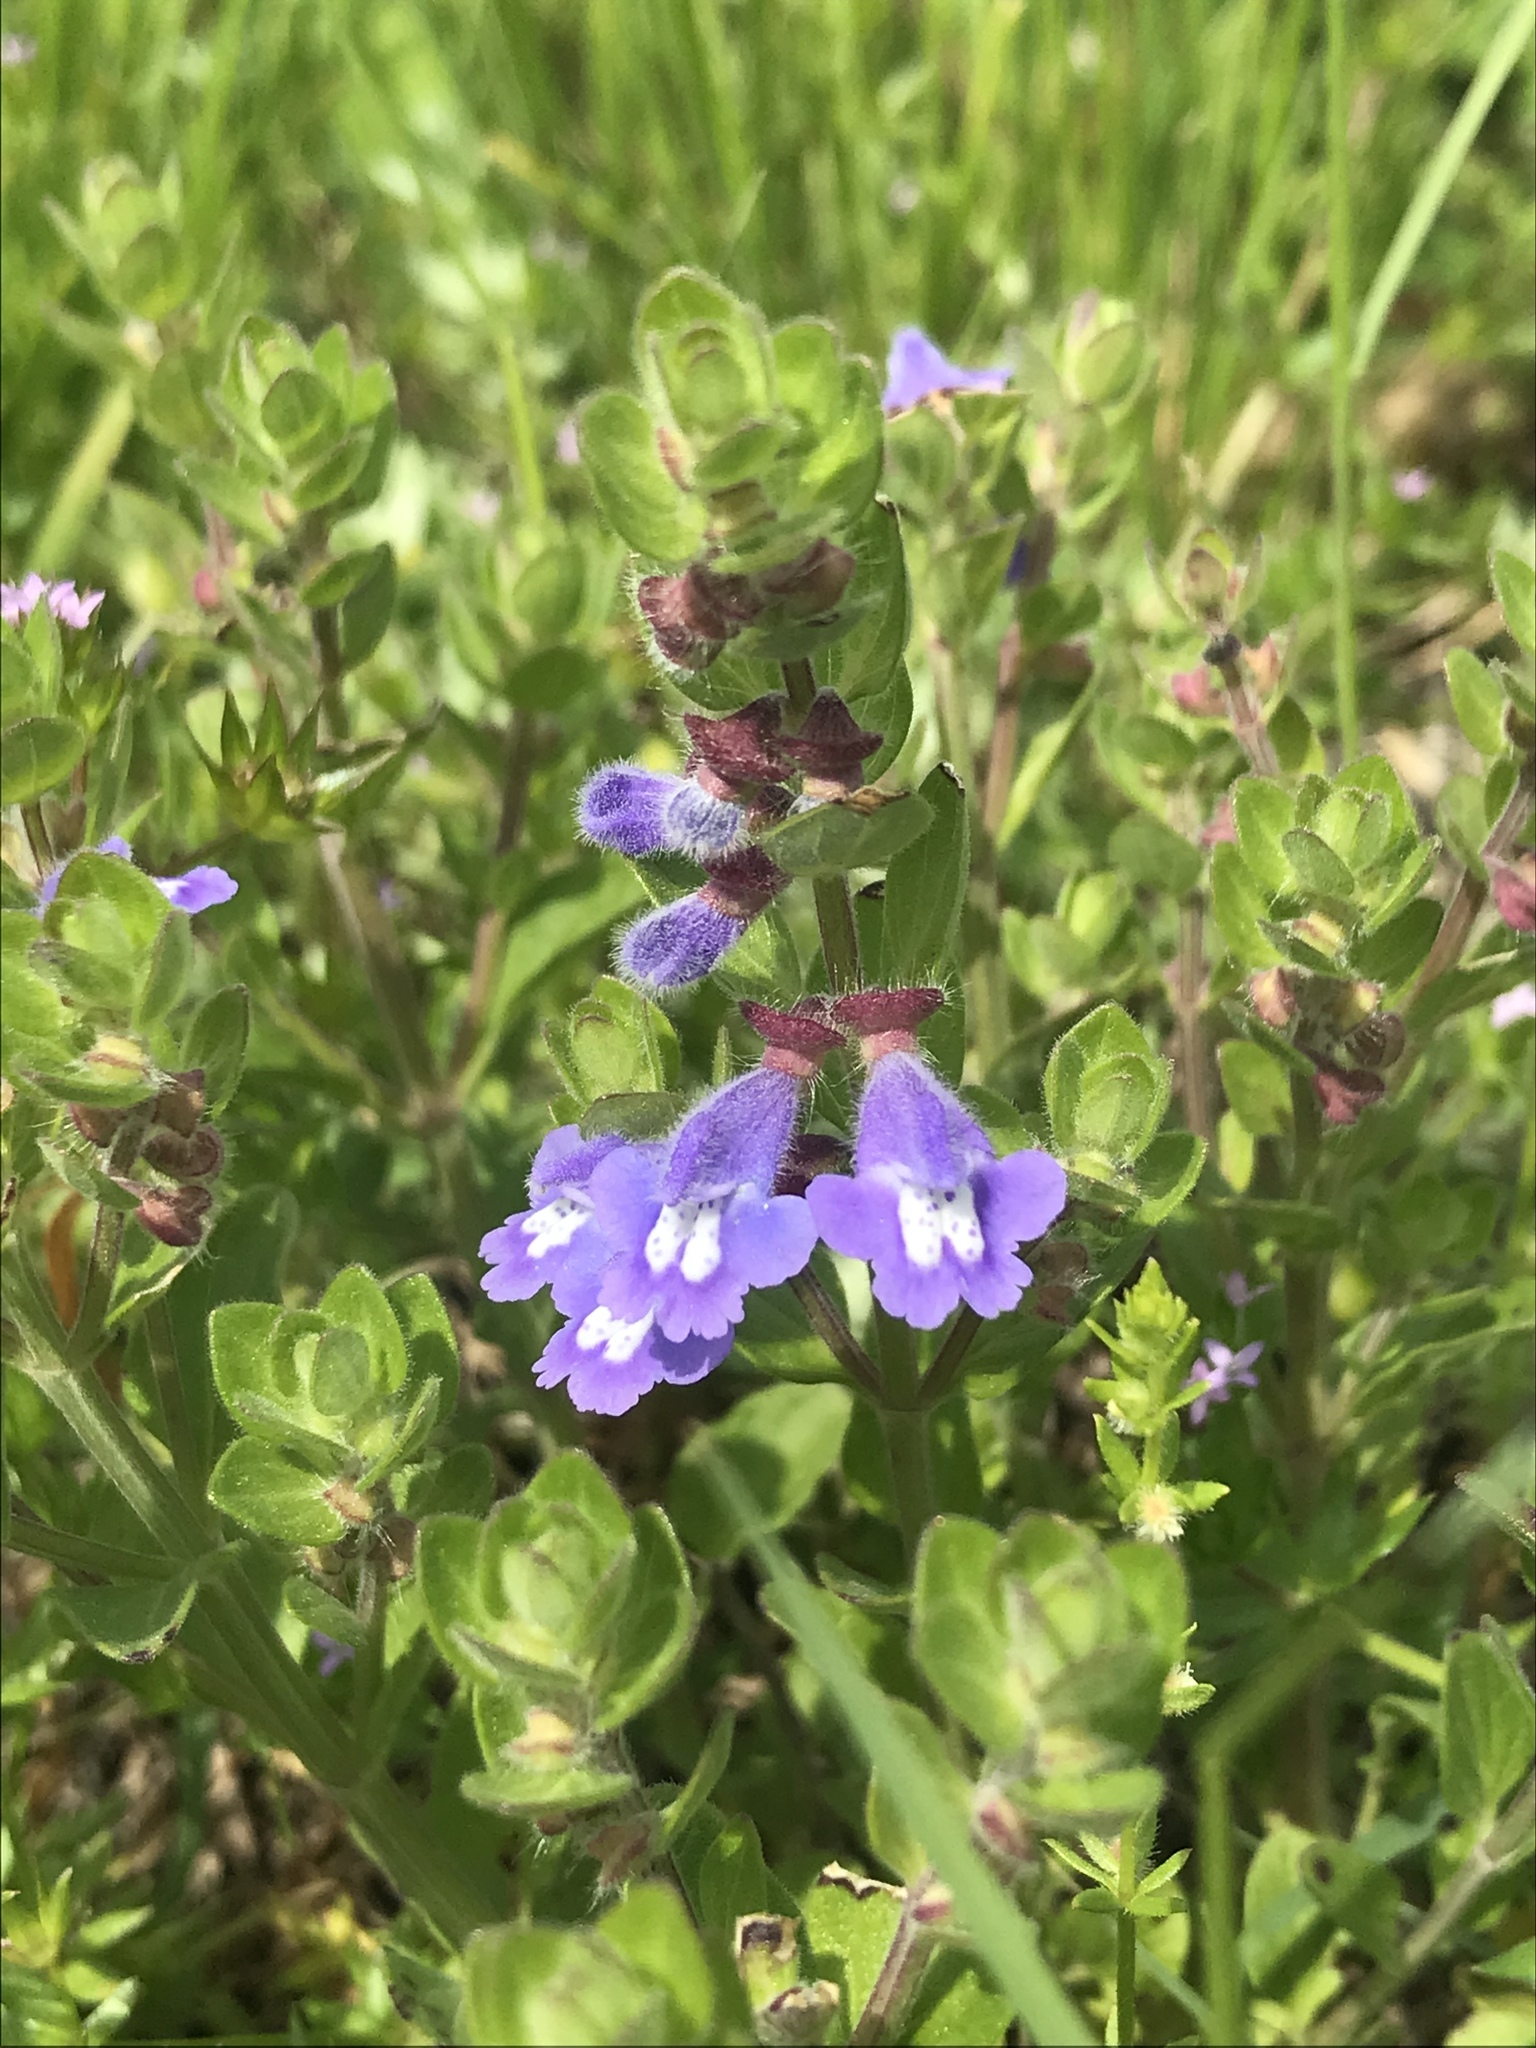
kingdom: Plantae
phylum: Tracheophyta
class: Magnoliopsida
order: Lamiales
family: Lamiaceae
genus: Scutellaria
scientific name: Scutellaria drummondii
